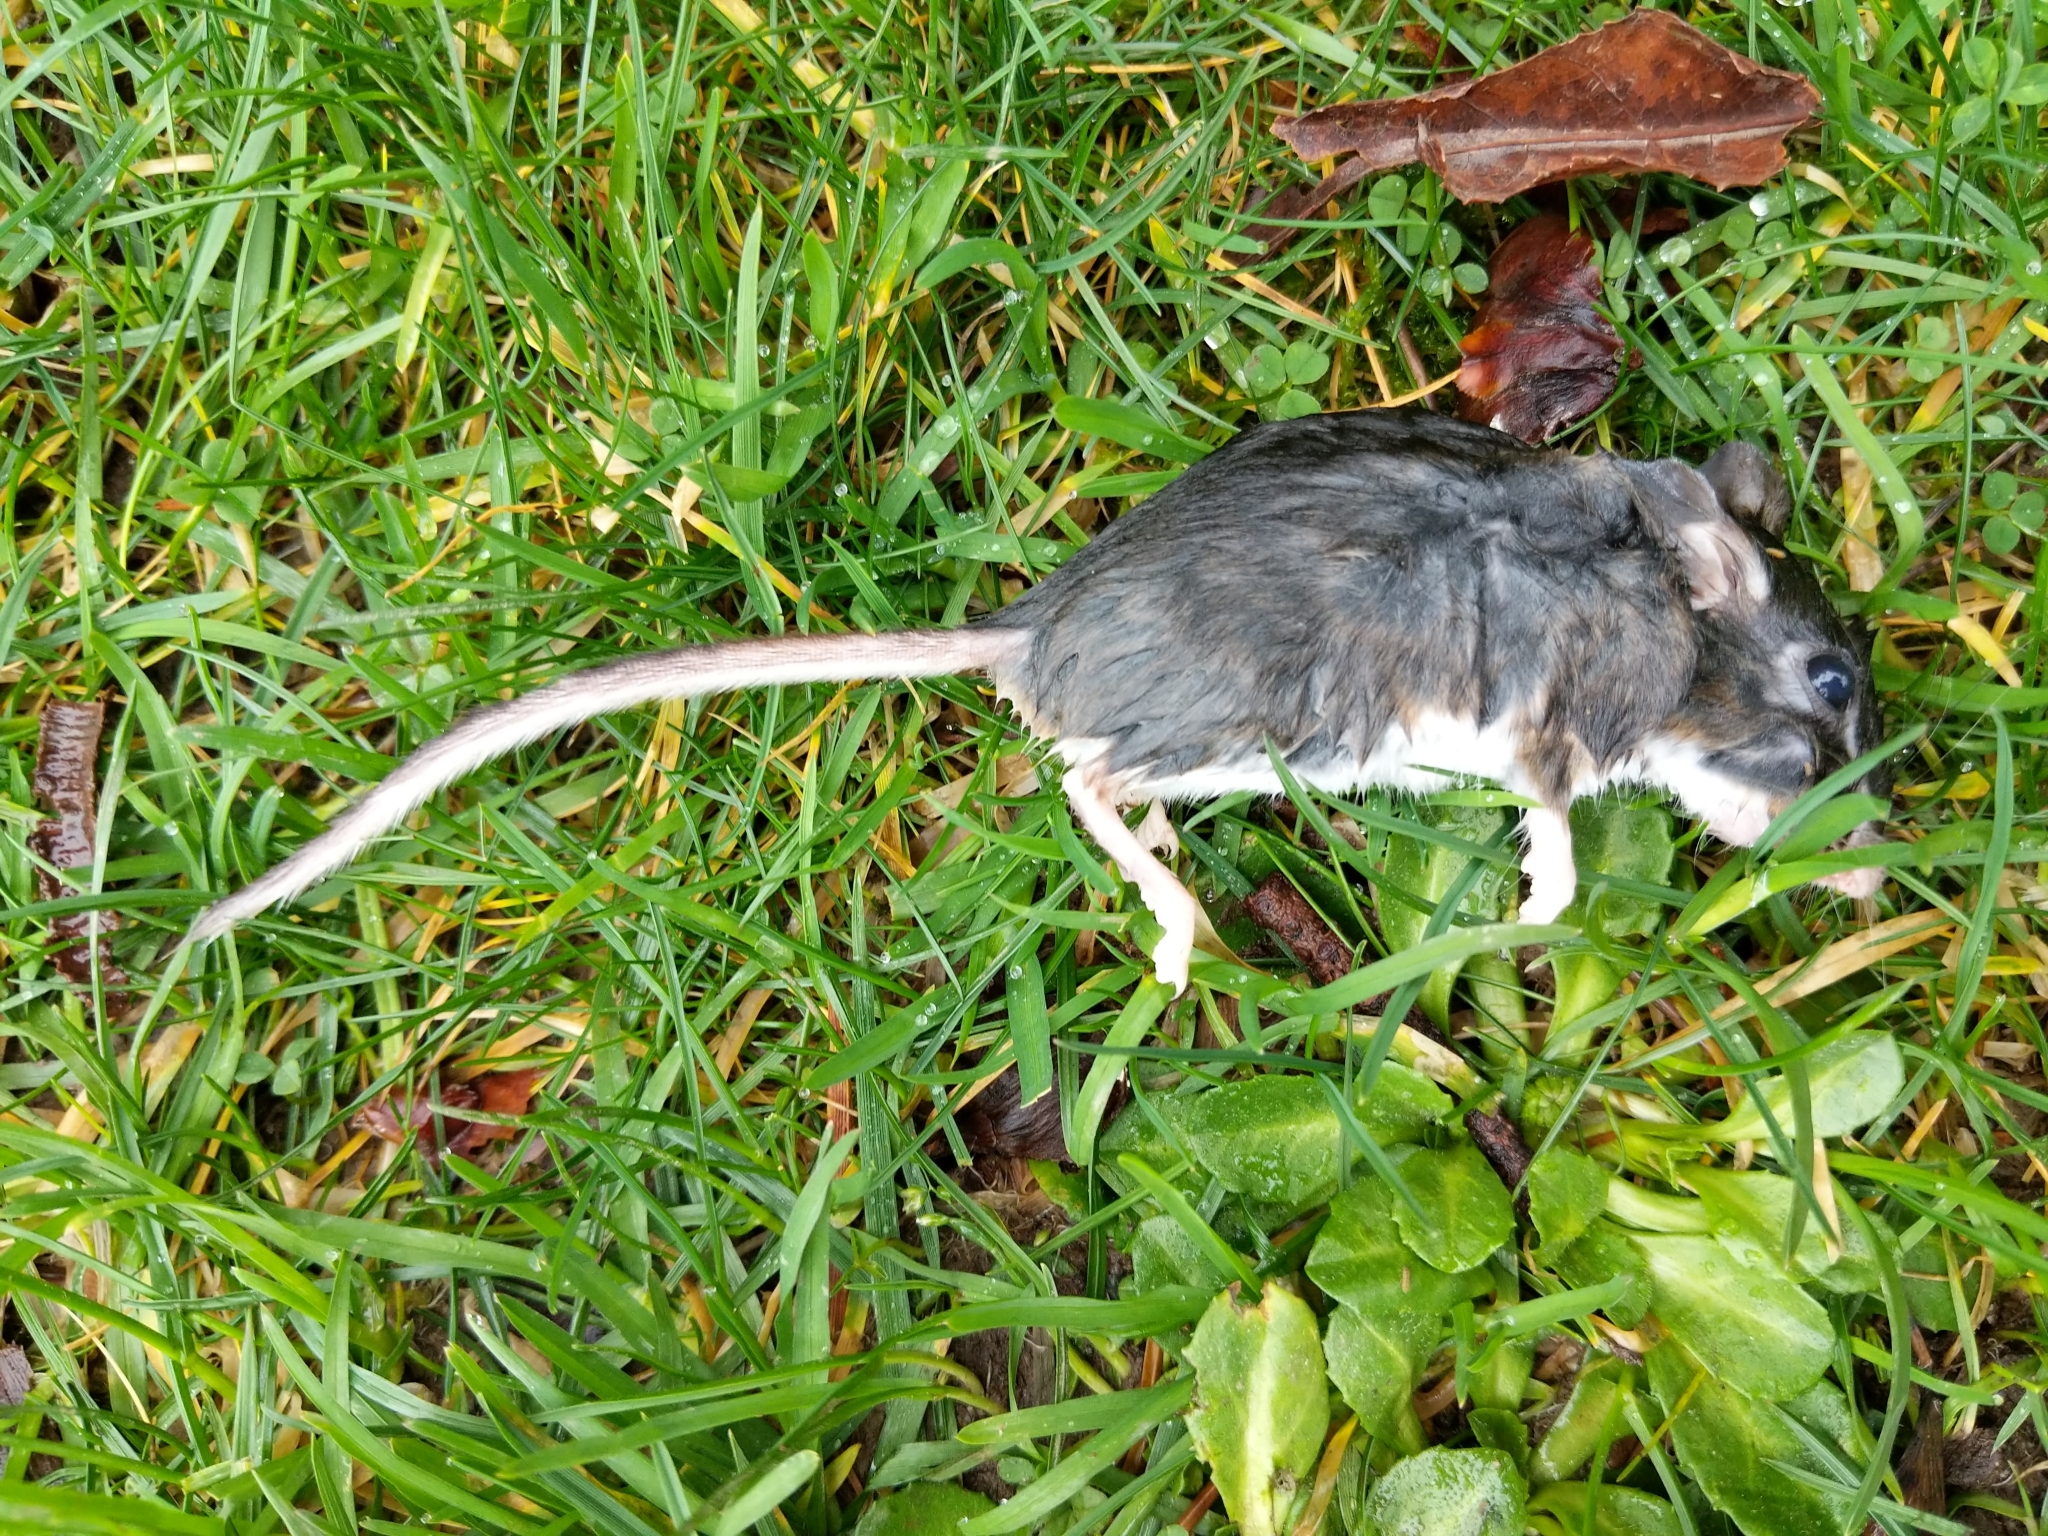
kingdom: Animalia
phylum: Chordata
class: Mammalia
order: Rodentia
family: Cricetidae
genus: Peromyscus
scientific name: Peromyscus maniculatus
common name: Deer mouse
